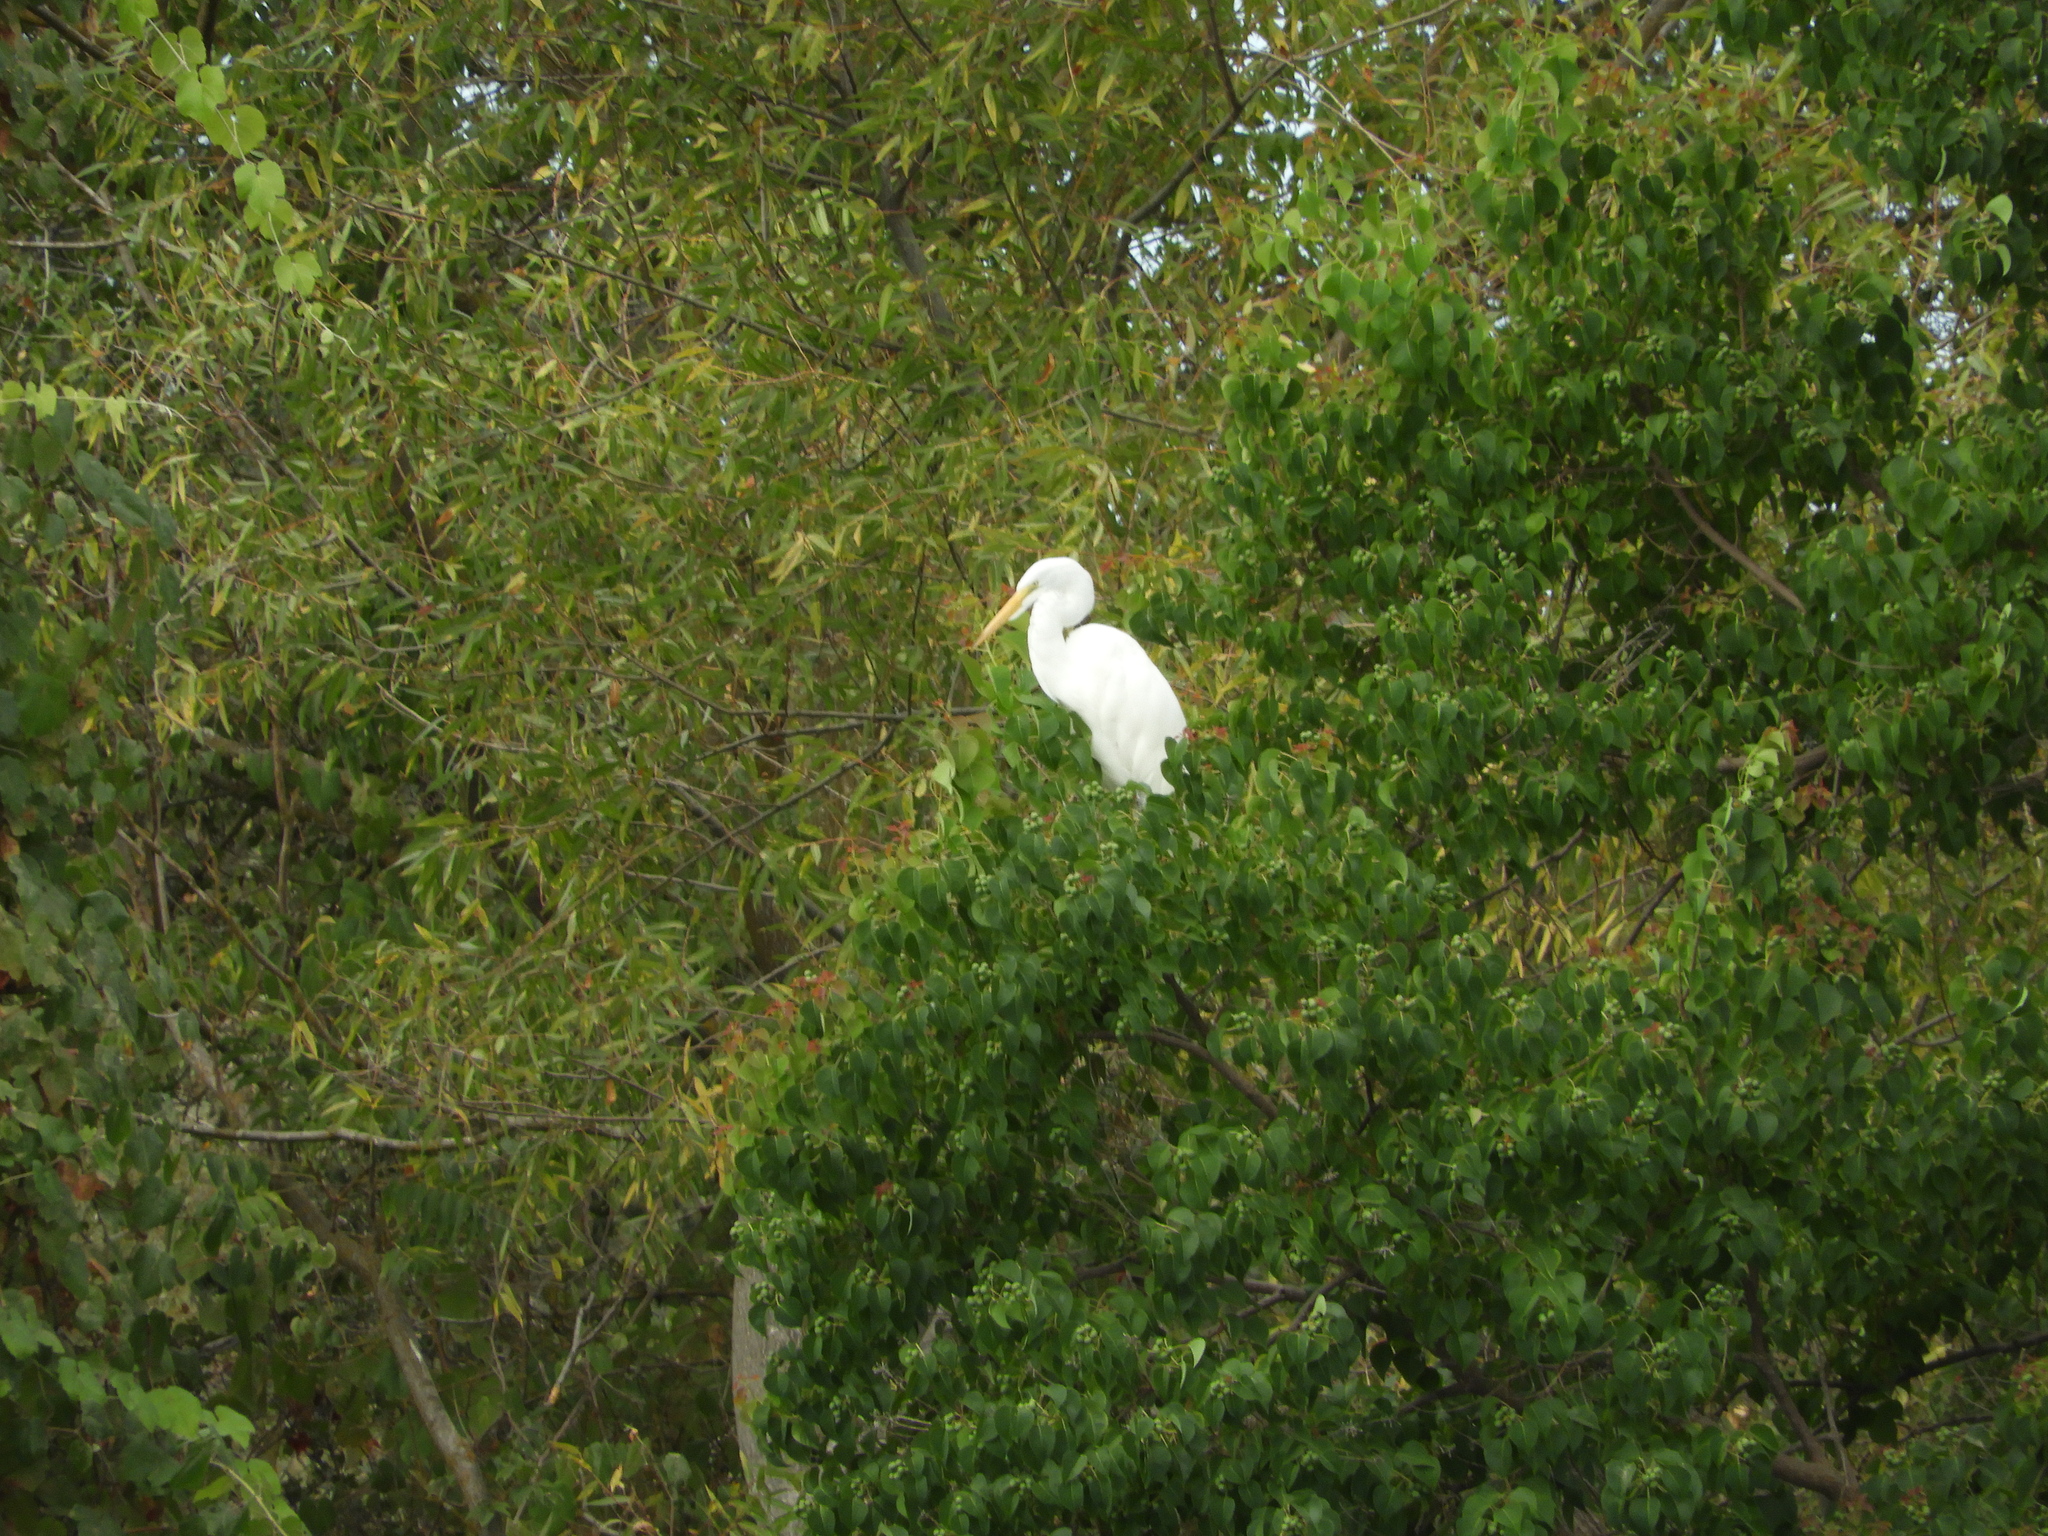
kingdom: Animalia
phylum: Chordata
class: Aves
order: Pelecaniformes
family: Ardeidae
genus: Ardea
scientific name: Ardea alba
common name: Great egret
